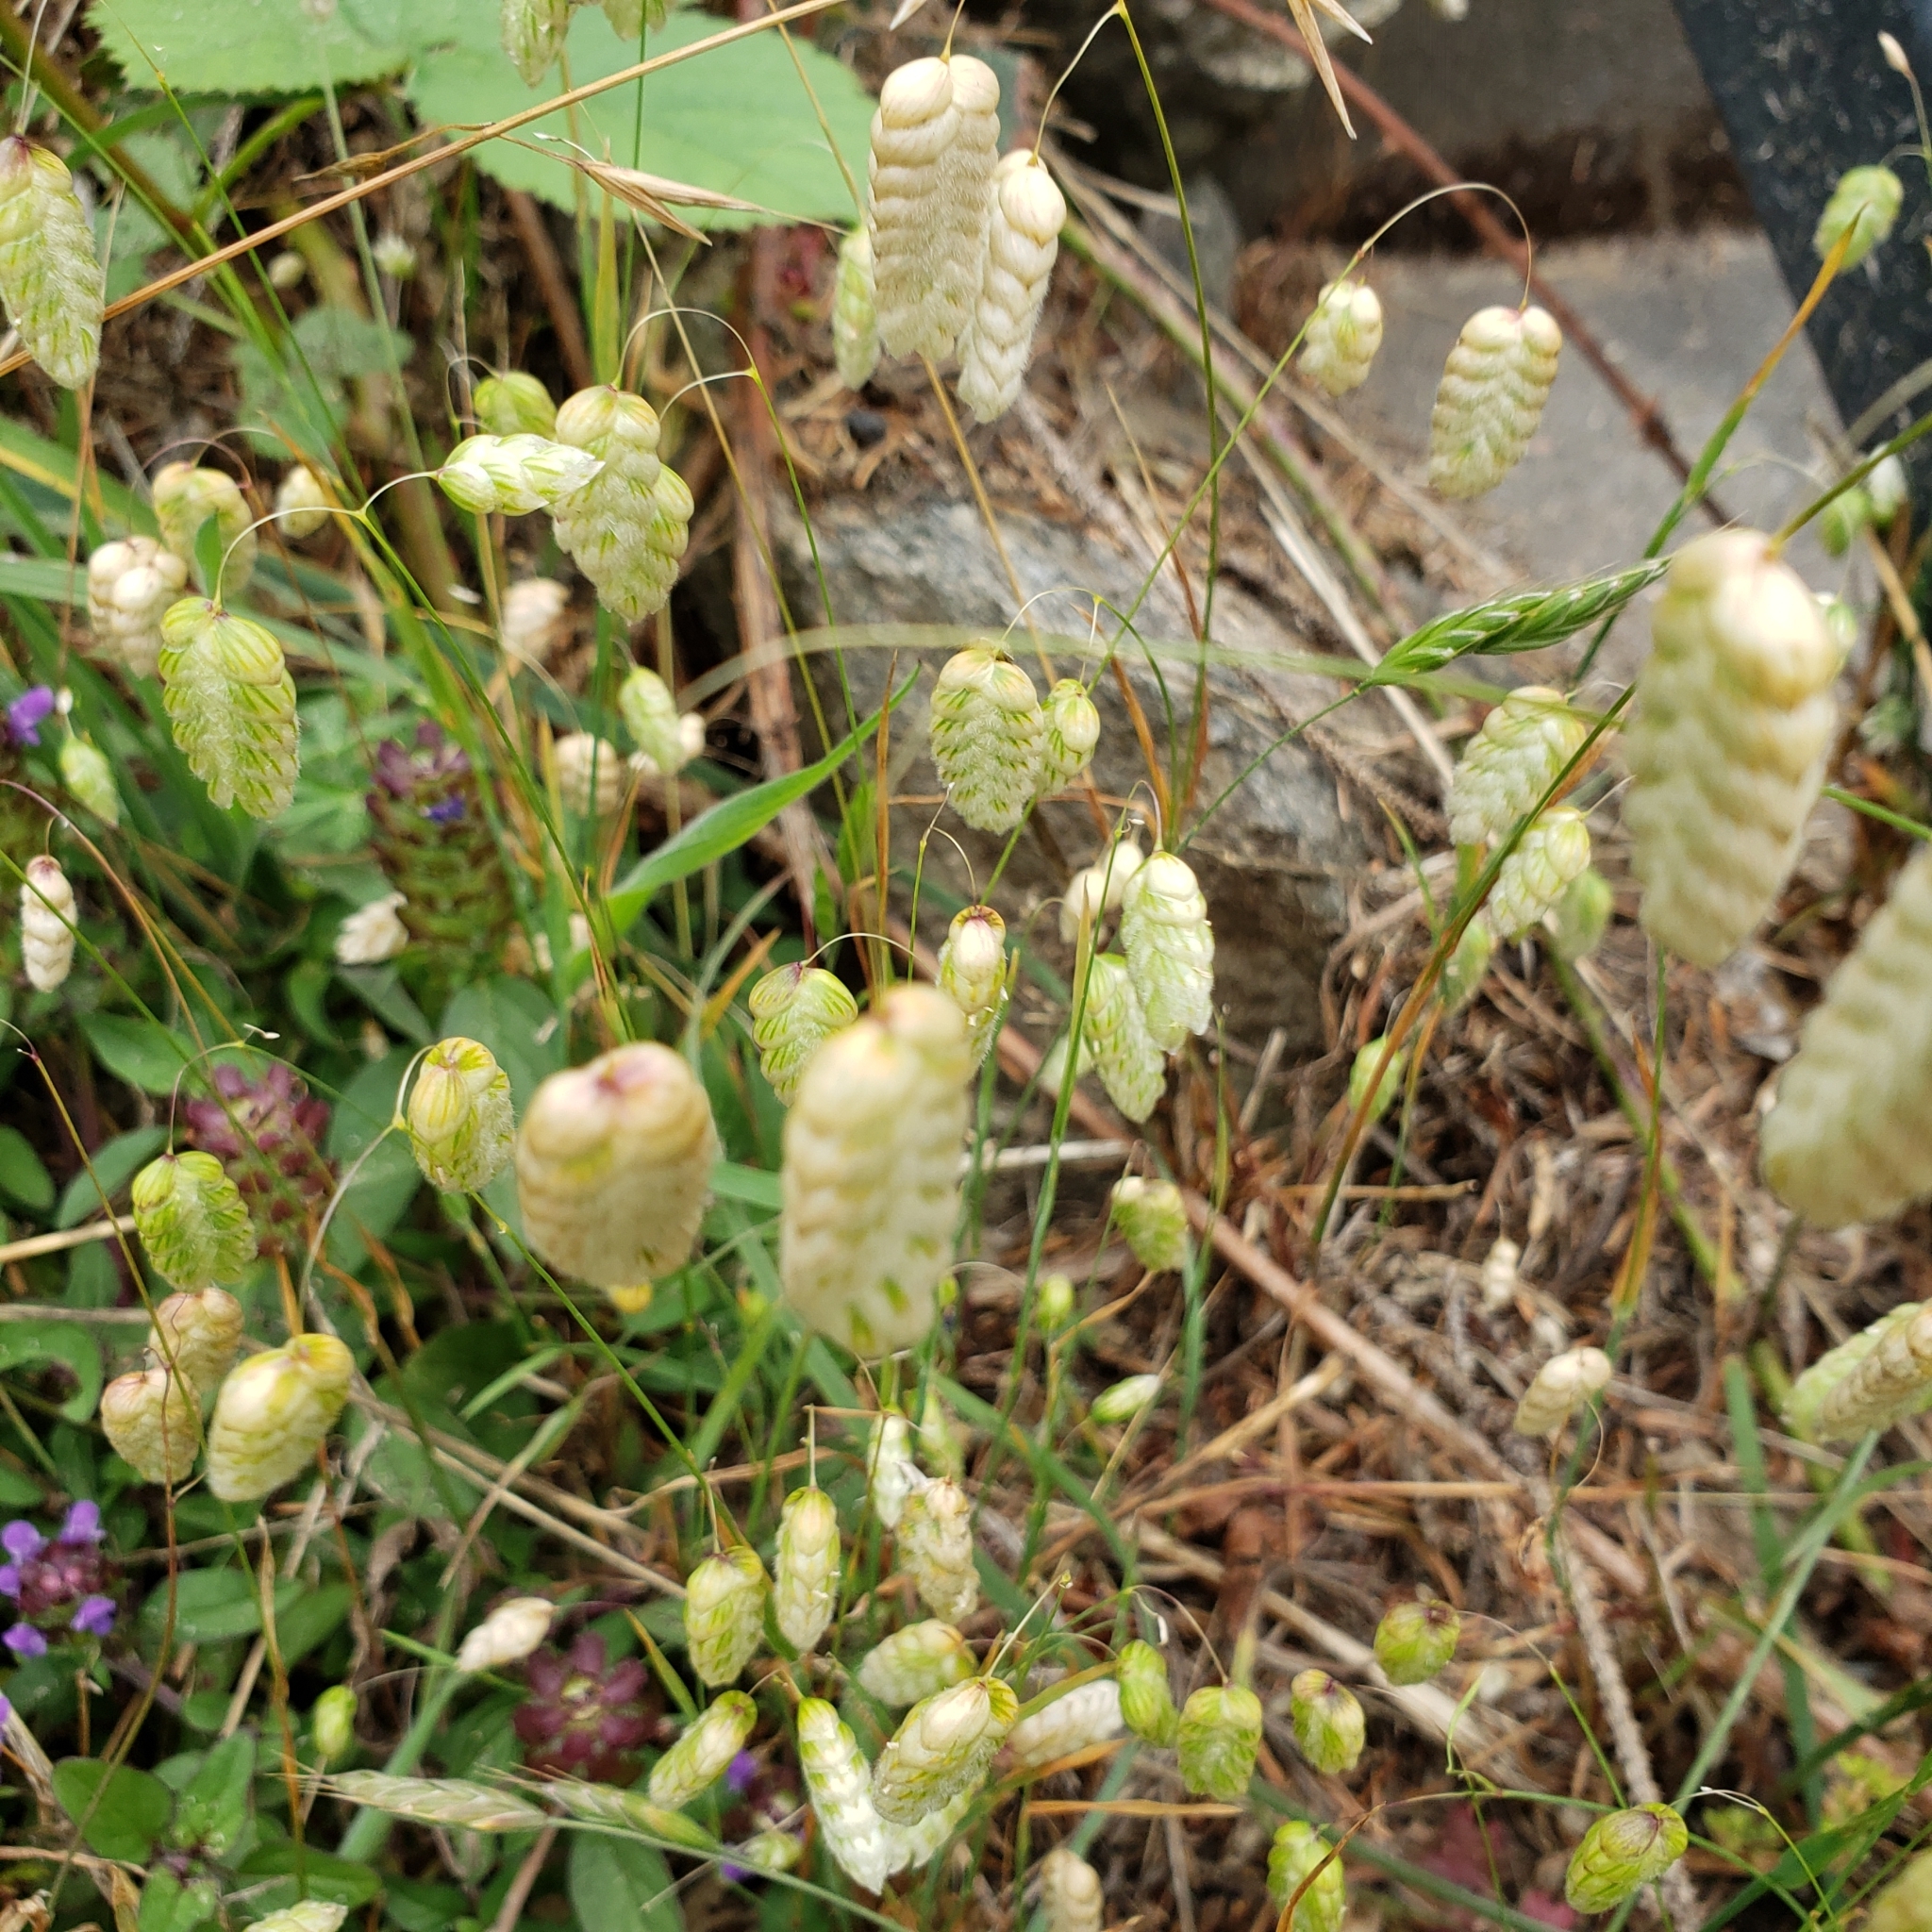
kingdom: Plantae
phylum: Tracheophyta
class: Liliopsida
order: Poales
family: Poaceae
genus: Briza
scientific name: Briza maxima
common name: Big quakinggrass
